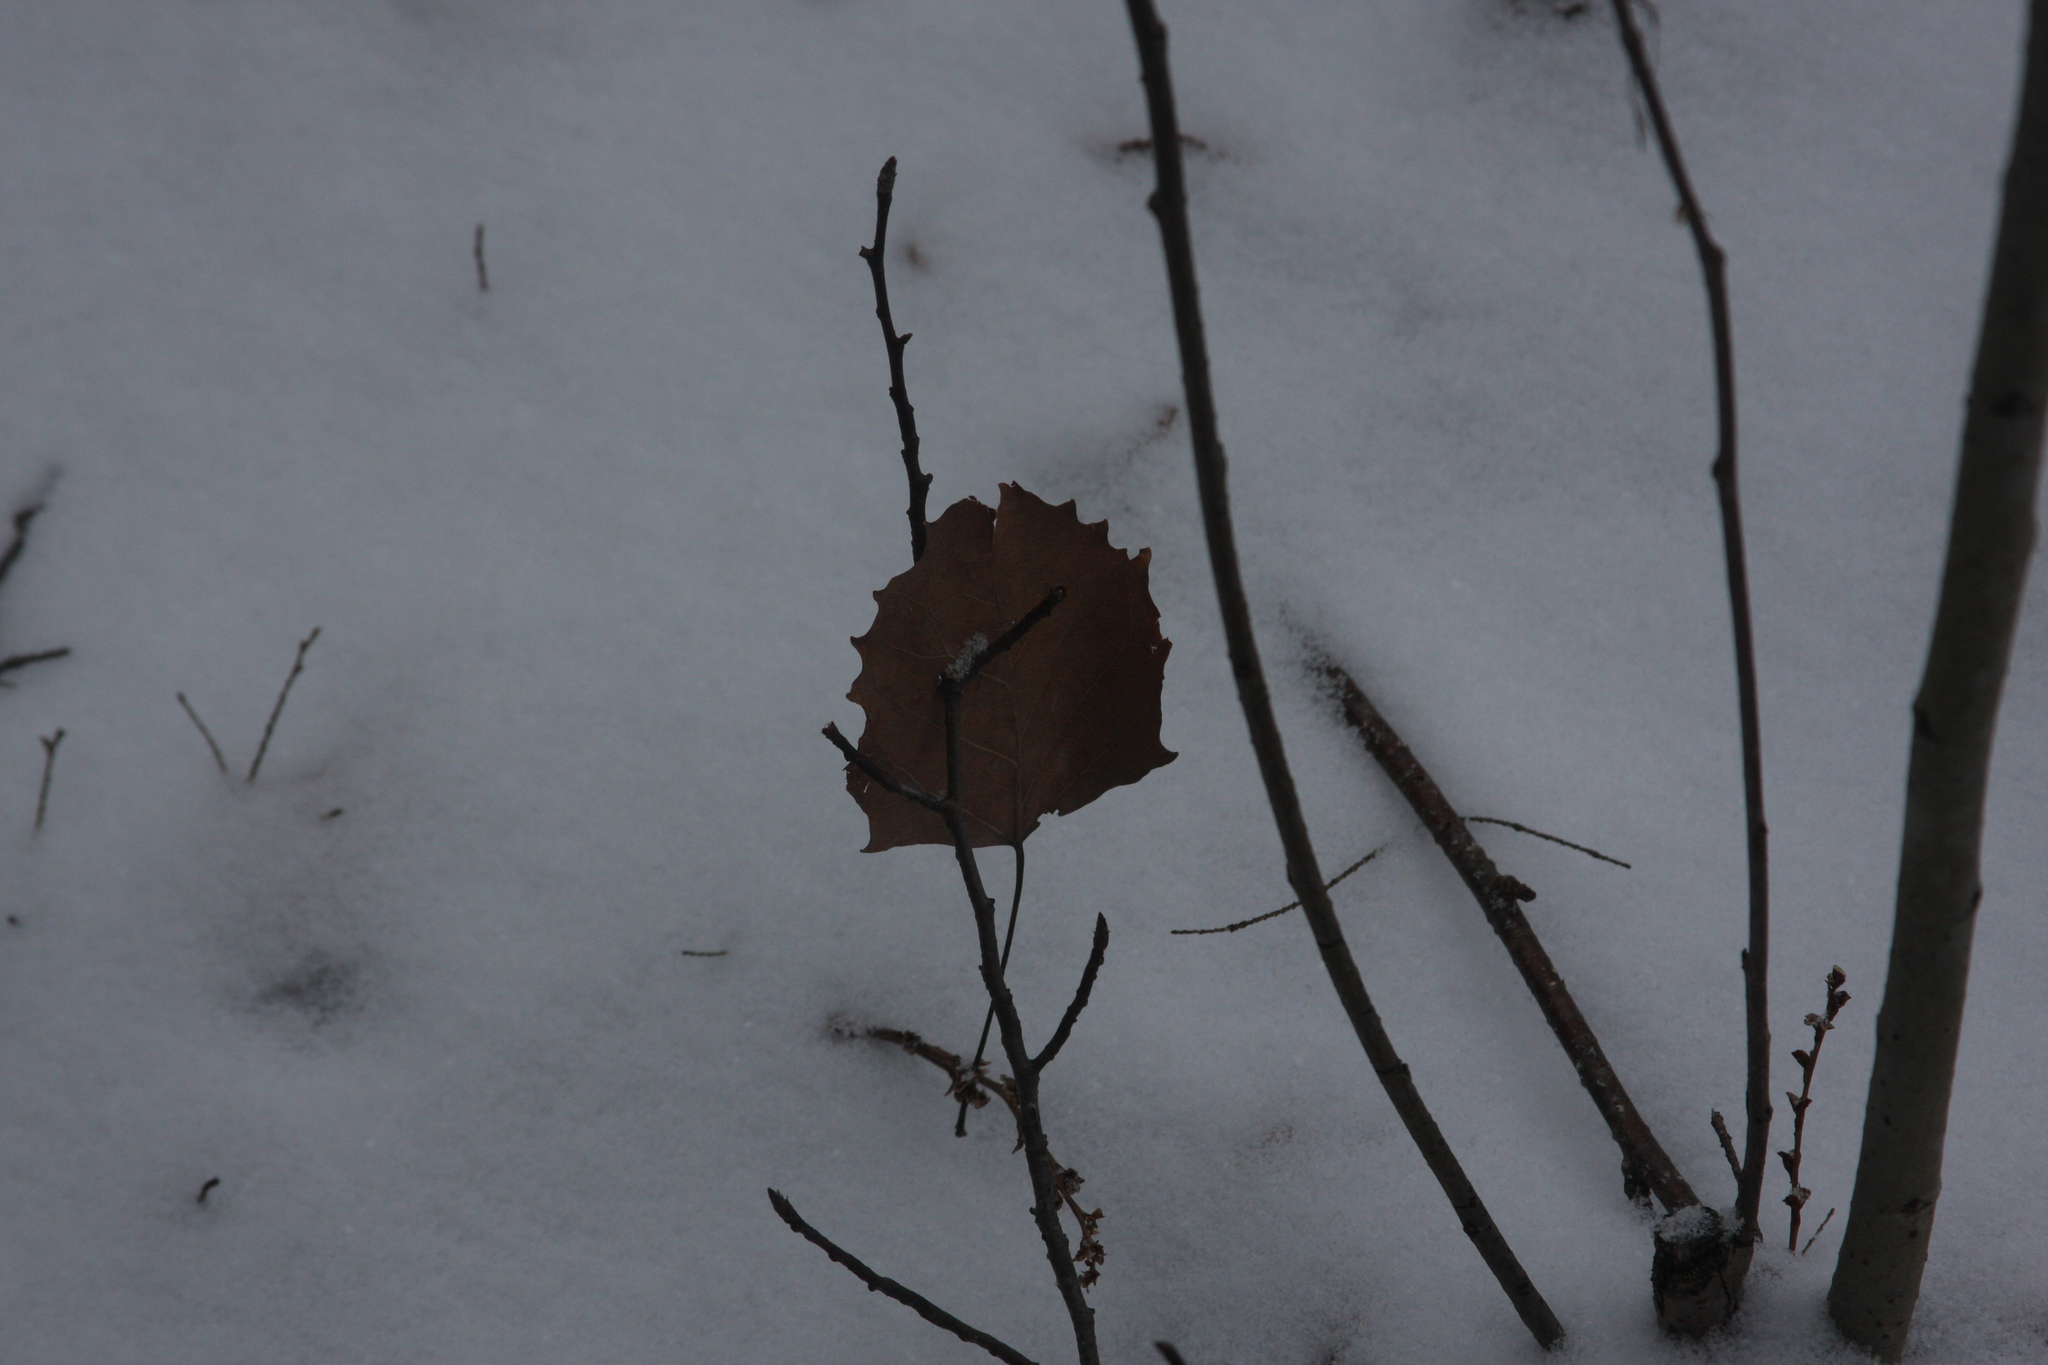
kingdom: Plantae
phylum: Tracheophyta
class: Magnoliopsida
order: Malpighiales
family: Salicaceae
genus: Populus
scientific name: Populus grandidentata
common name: Bigtooth aspen
